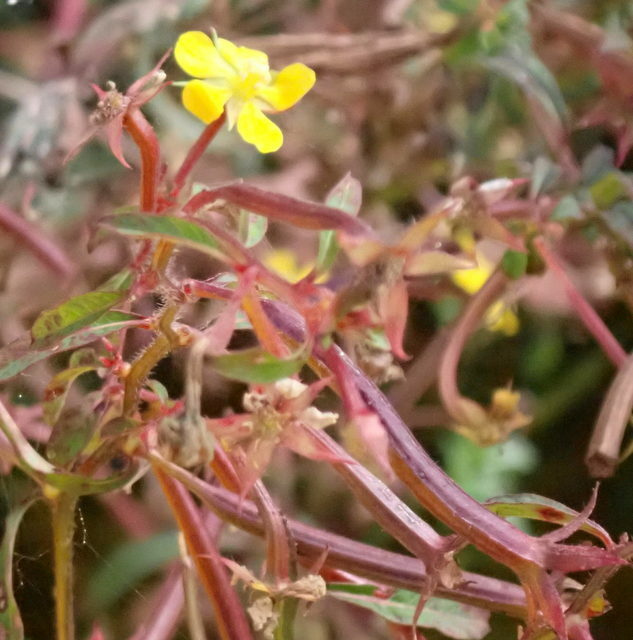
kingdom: Plantae
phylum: Tracheophyta
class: Magnoliopsida
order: Myrtales
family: Onagraceae
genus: Ludwigia
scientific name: Ludwigia leptocarpa
